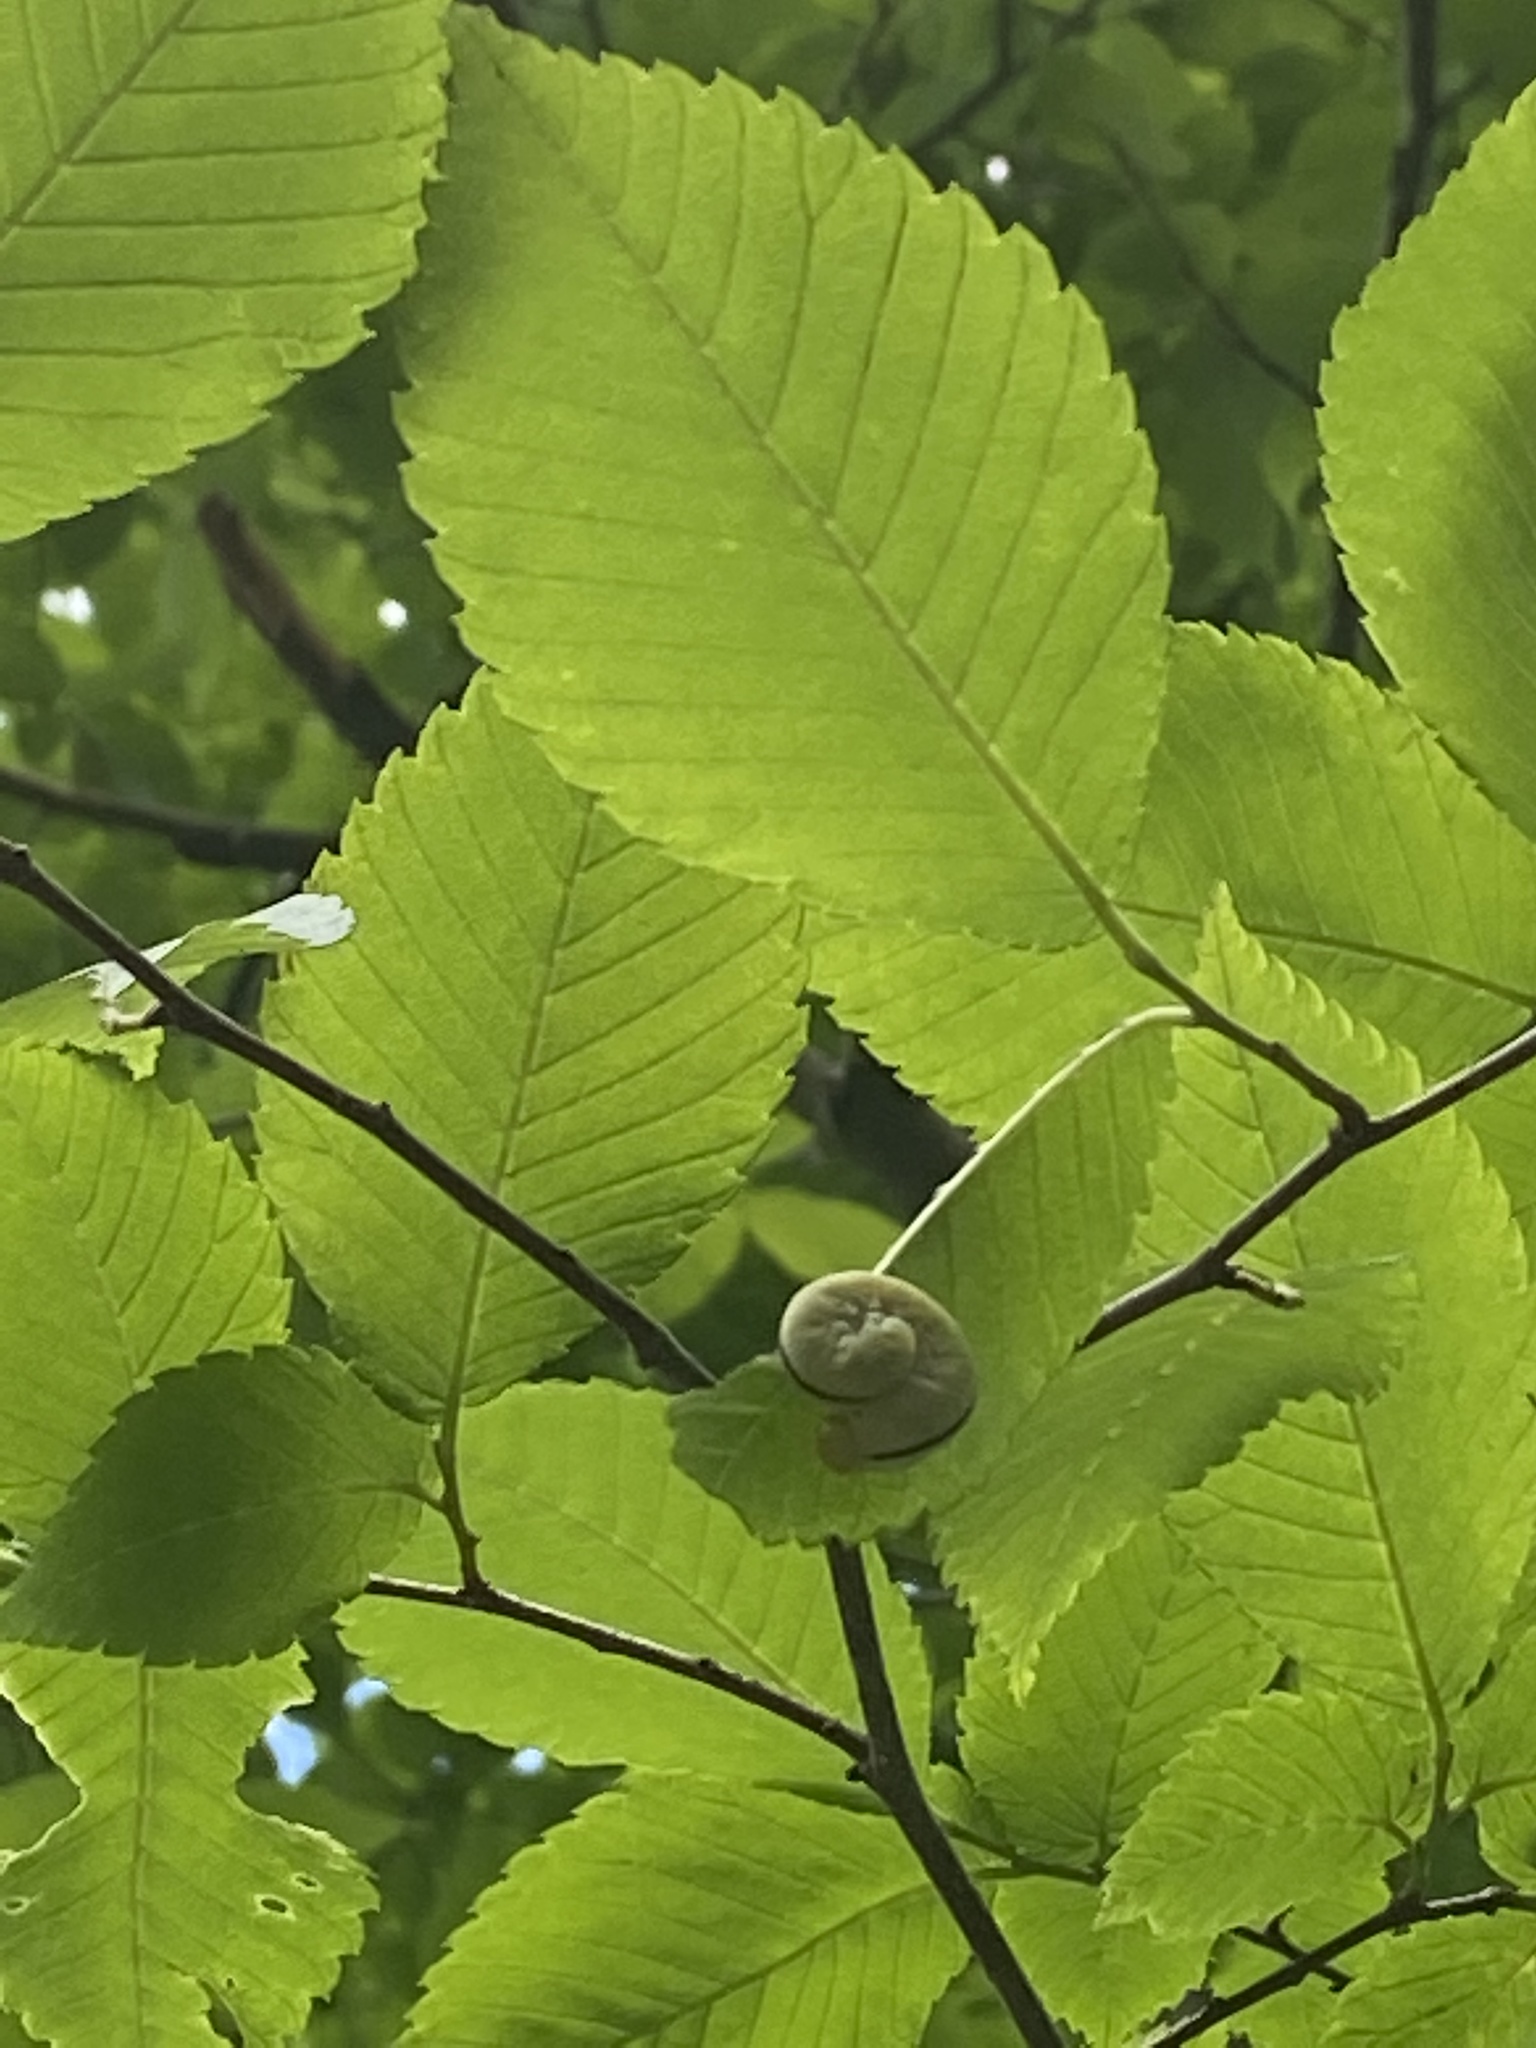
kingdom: Animalia
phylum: Arthropoda
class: Insecta
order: Hymenoptera
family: Cimbicidae
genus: Cimbex
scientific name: Cimbex americana
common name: Elm sawfly
